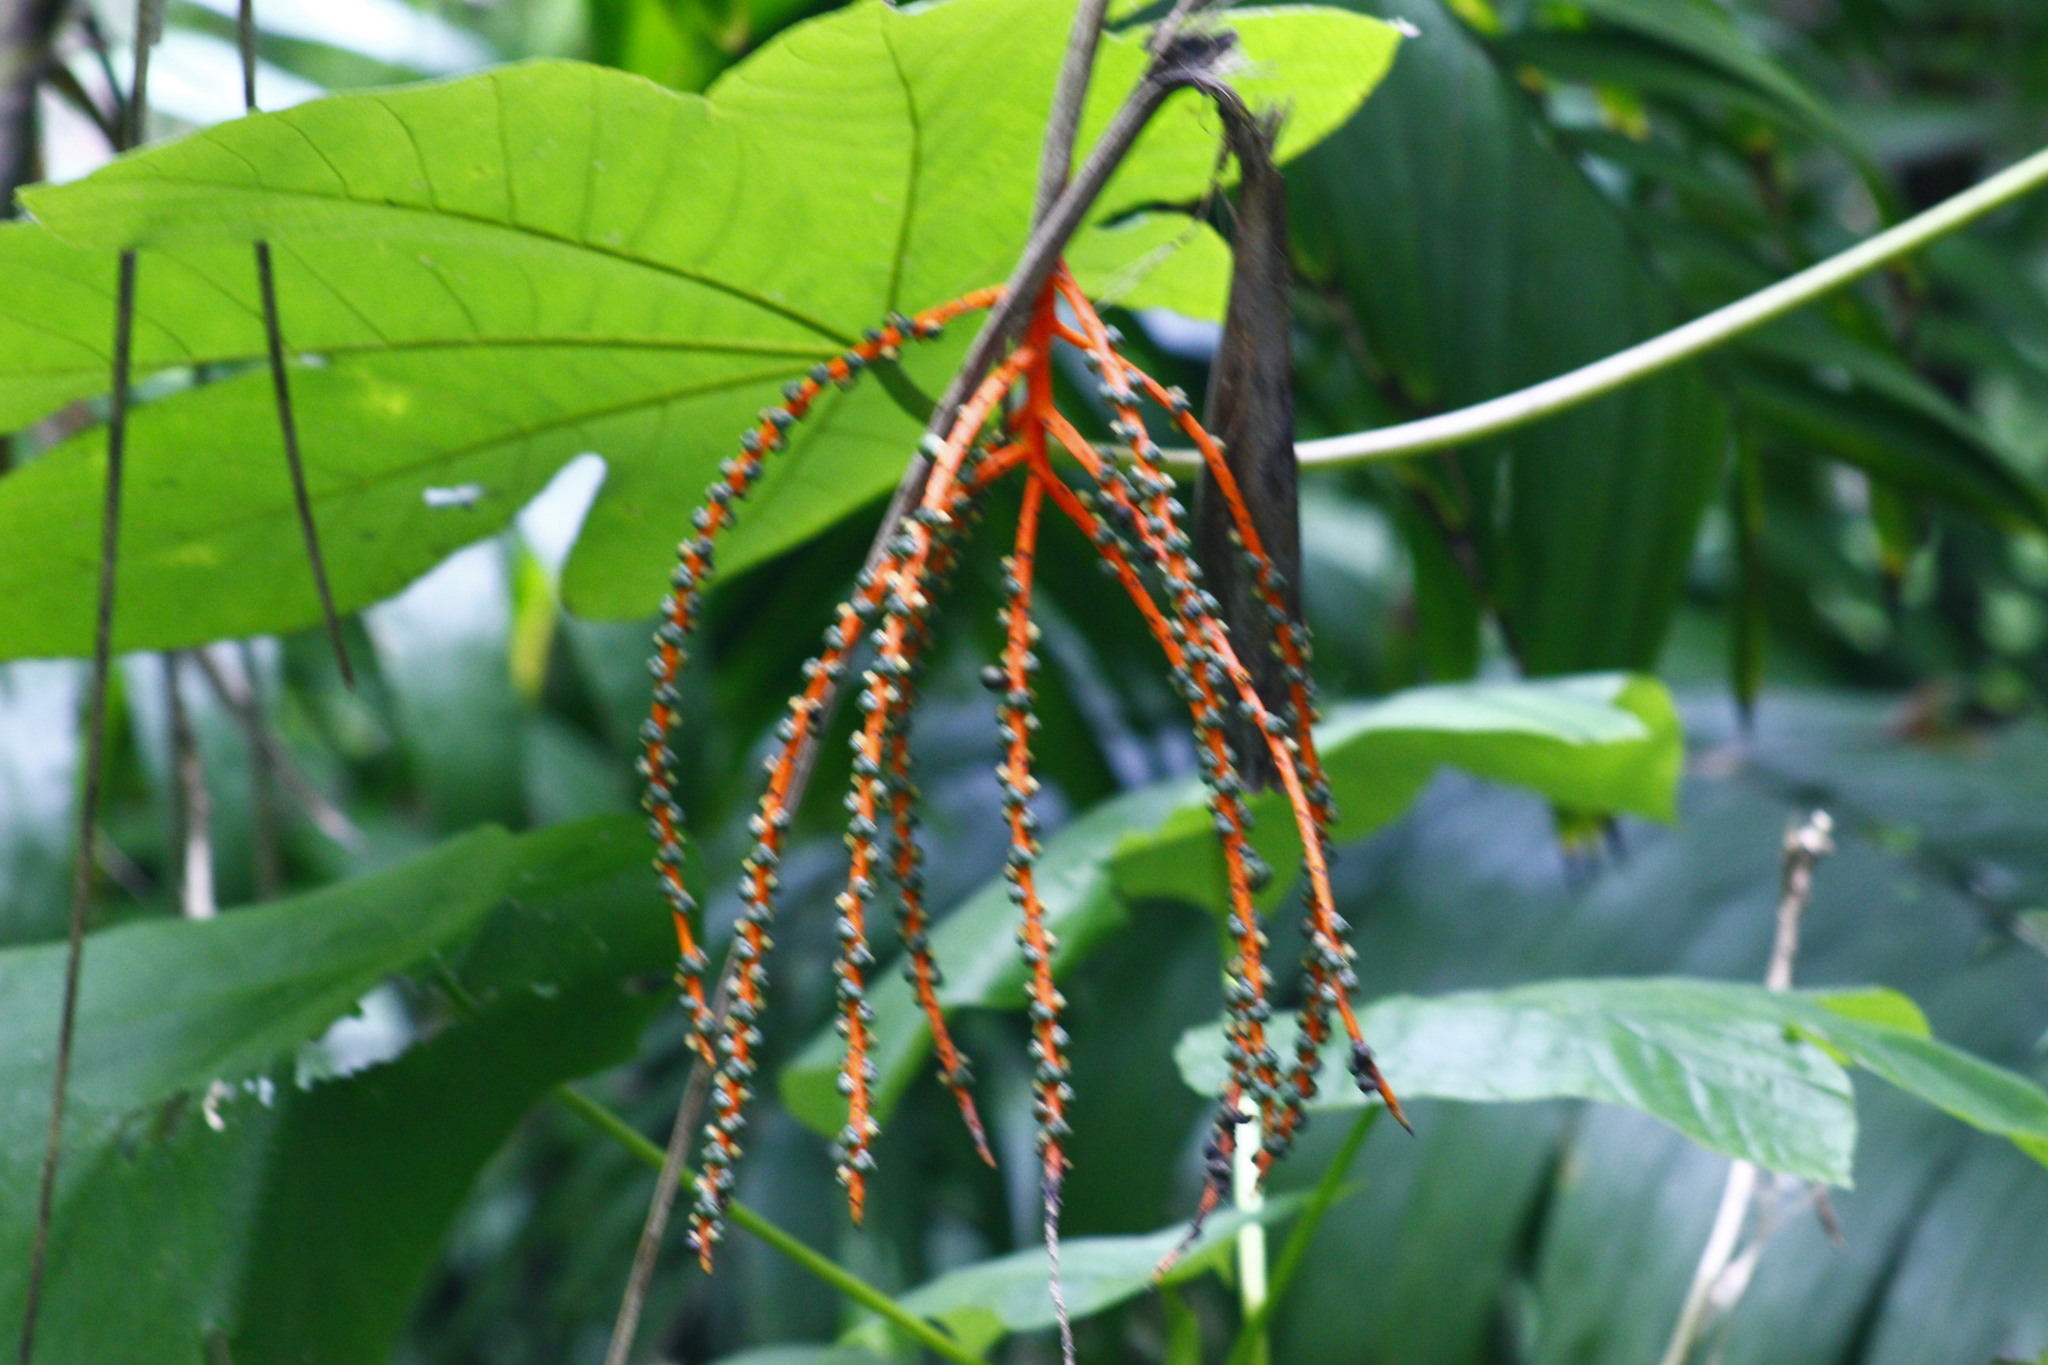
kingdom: Plantae
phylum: Tracheophyta
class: Liliopsida
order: Arecales
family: Arecaceae
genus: Chamaedorea
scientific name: Chamaedorea tepejilote
